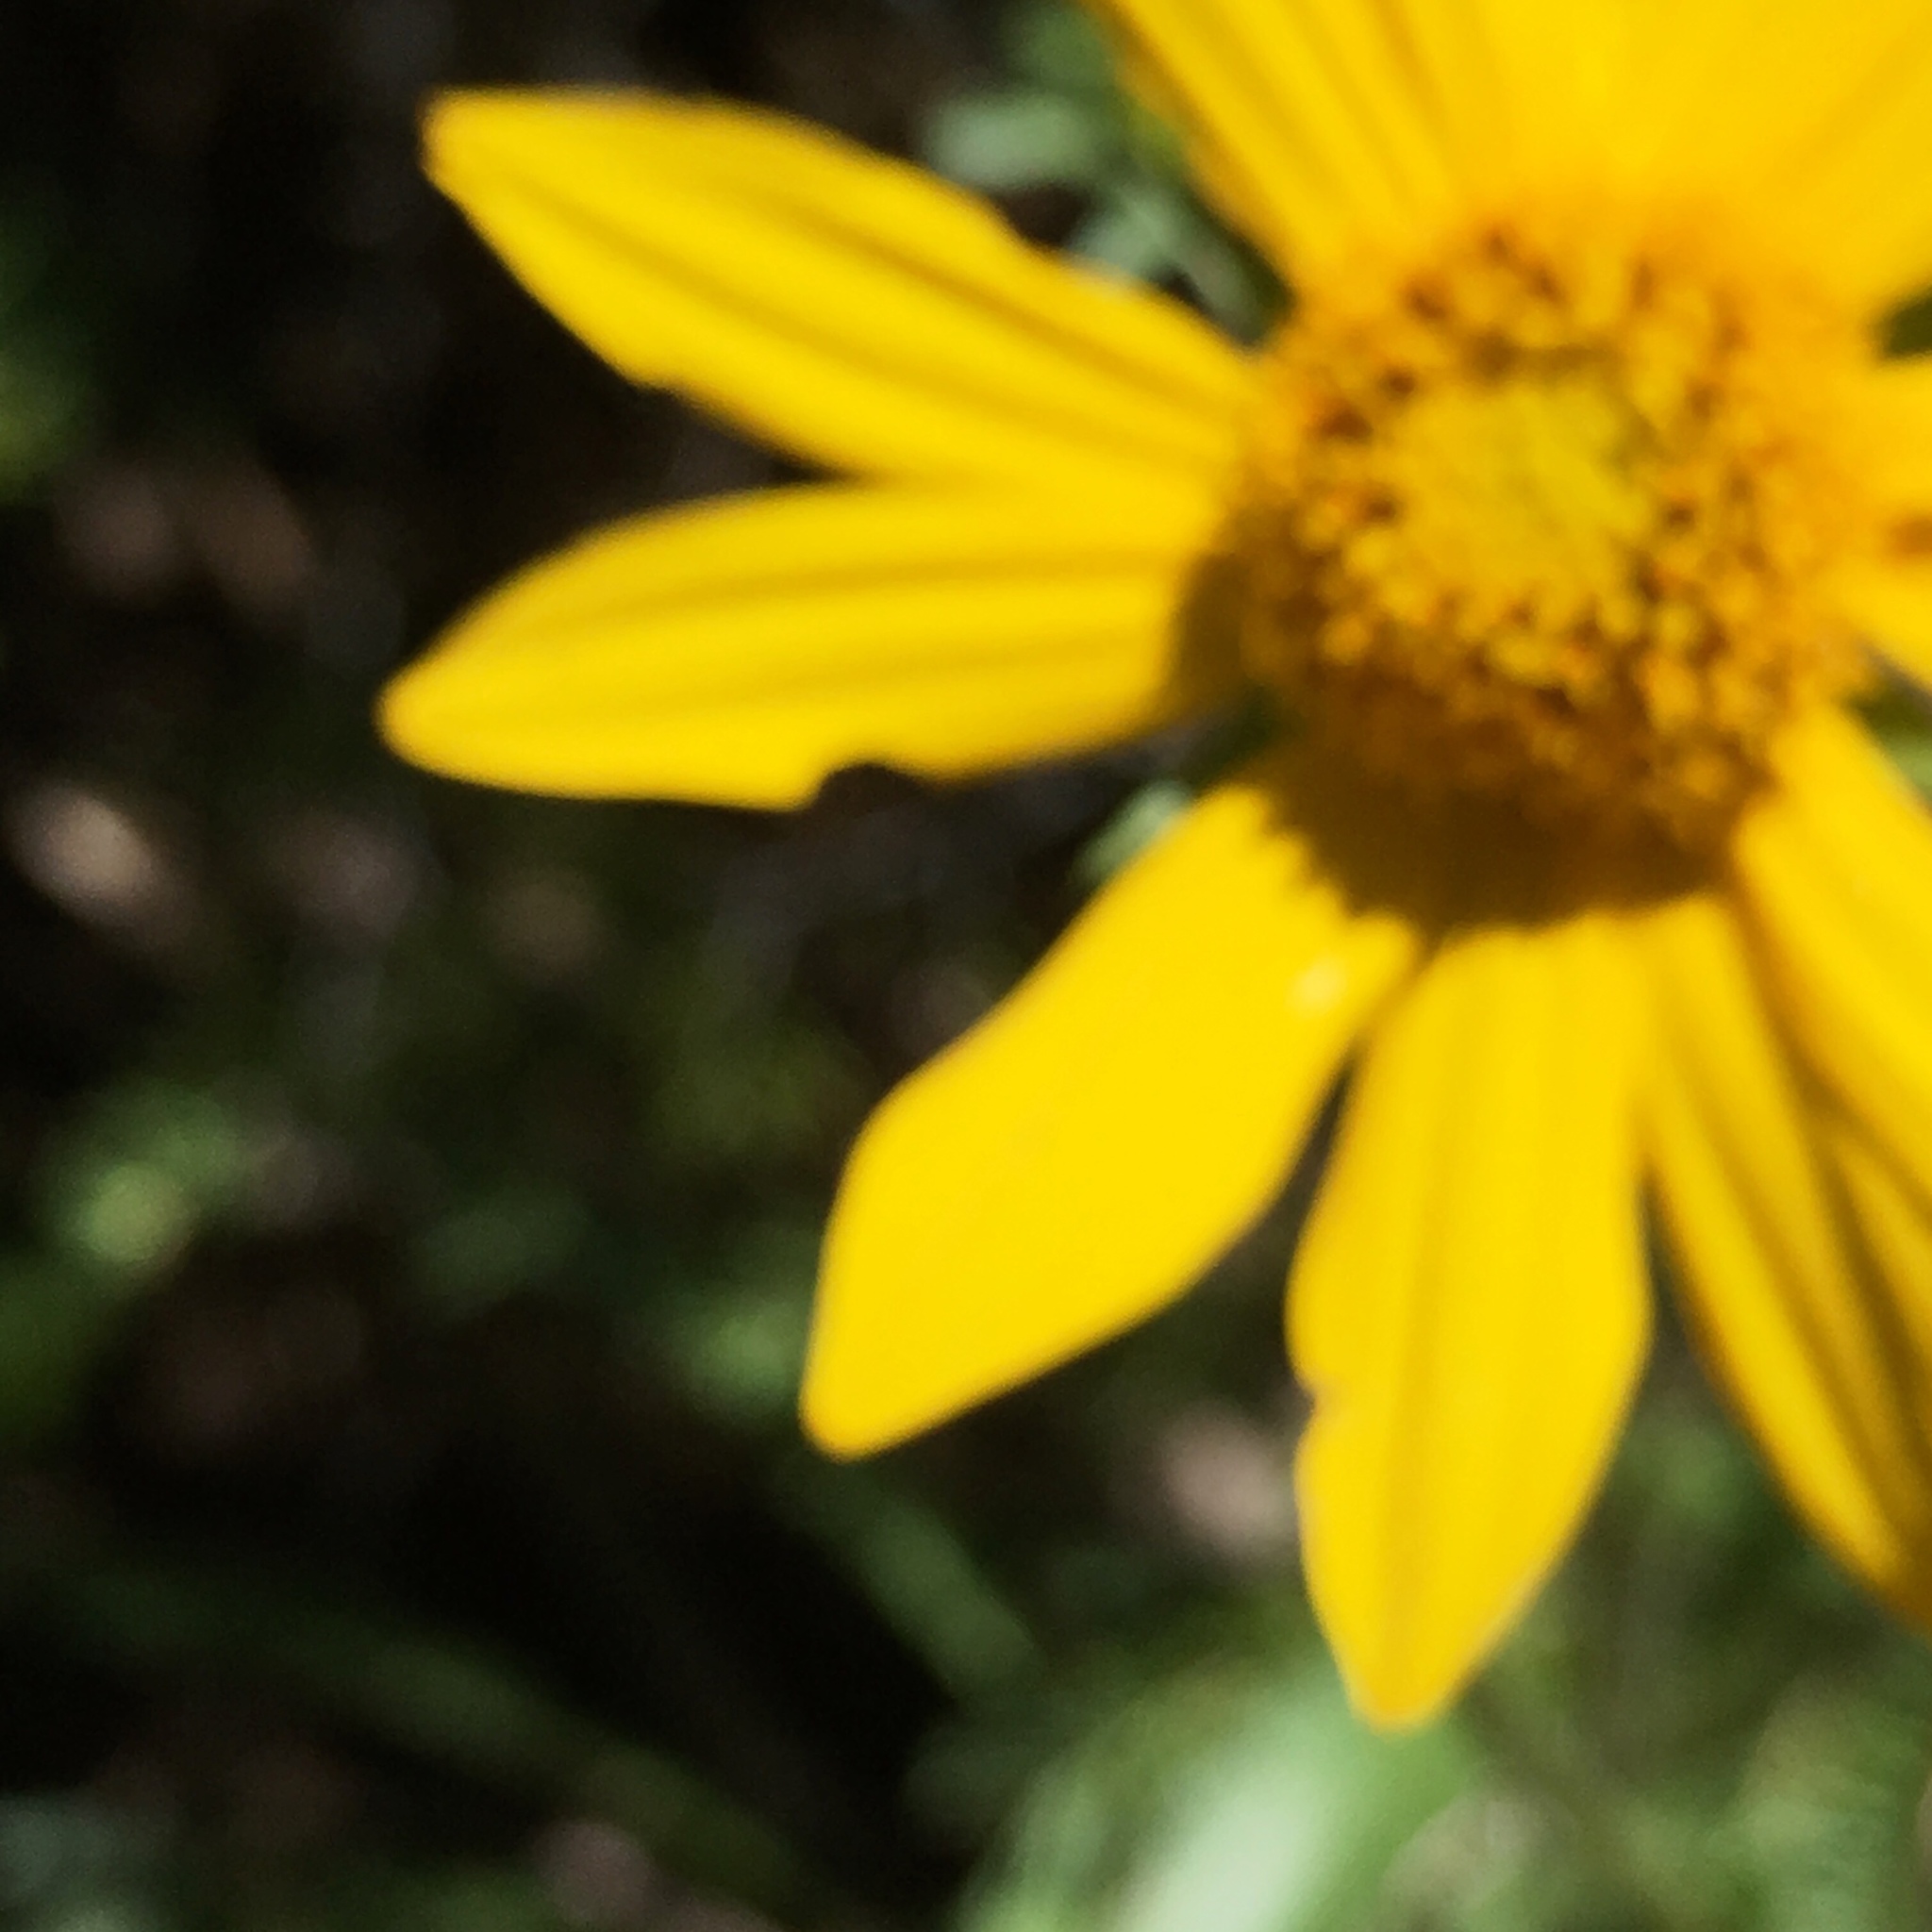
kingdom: Plantae
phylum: Tracheophyta
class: Magnoliopsida
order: Asterales
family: Asteraceae
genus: Helianthella
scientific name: Helianthella californica
